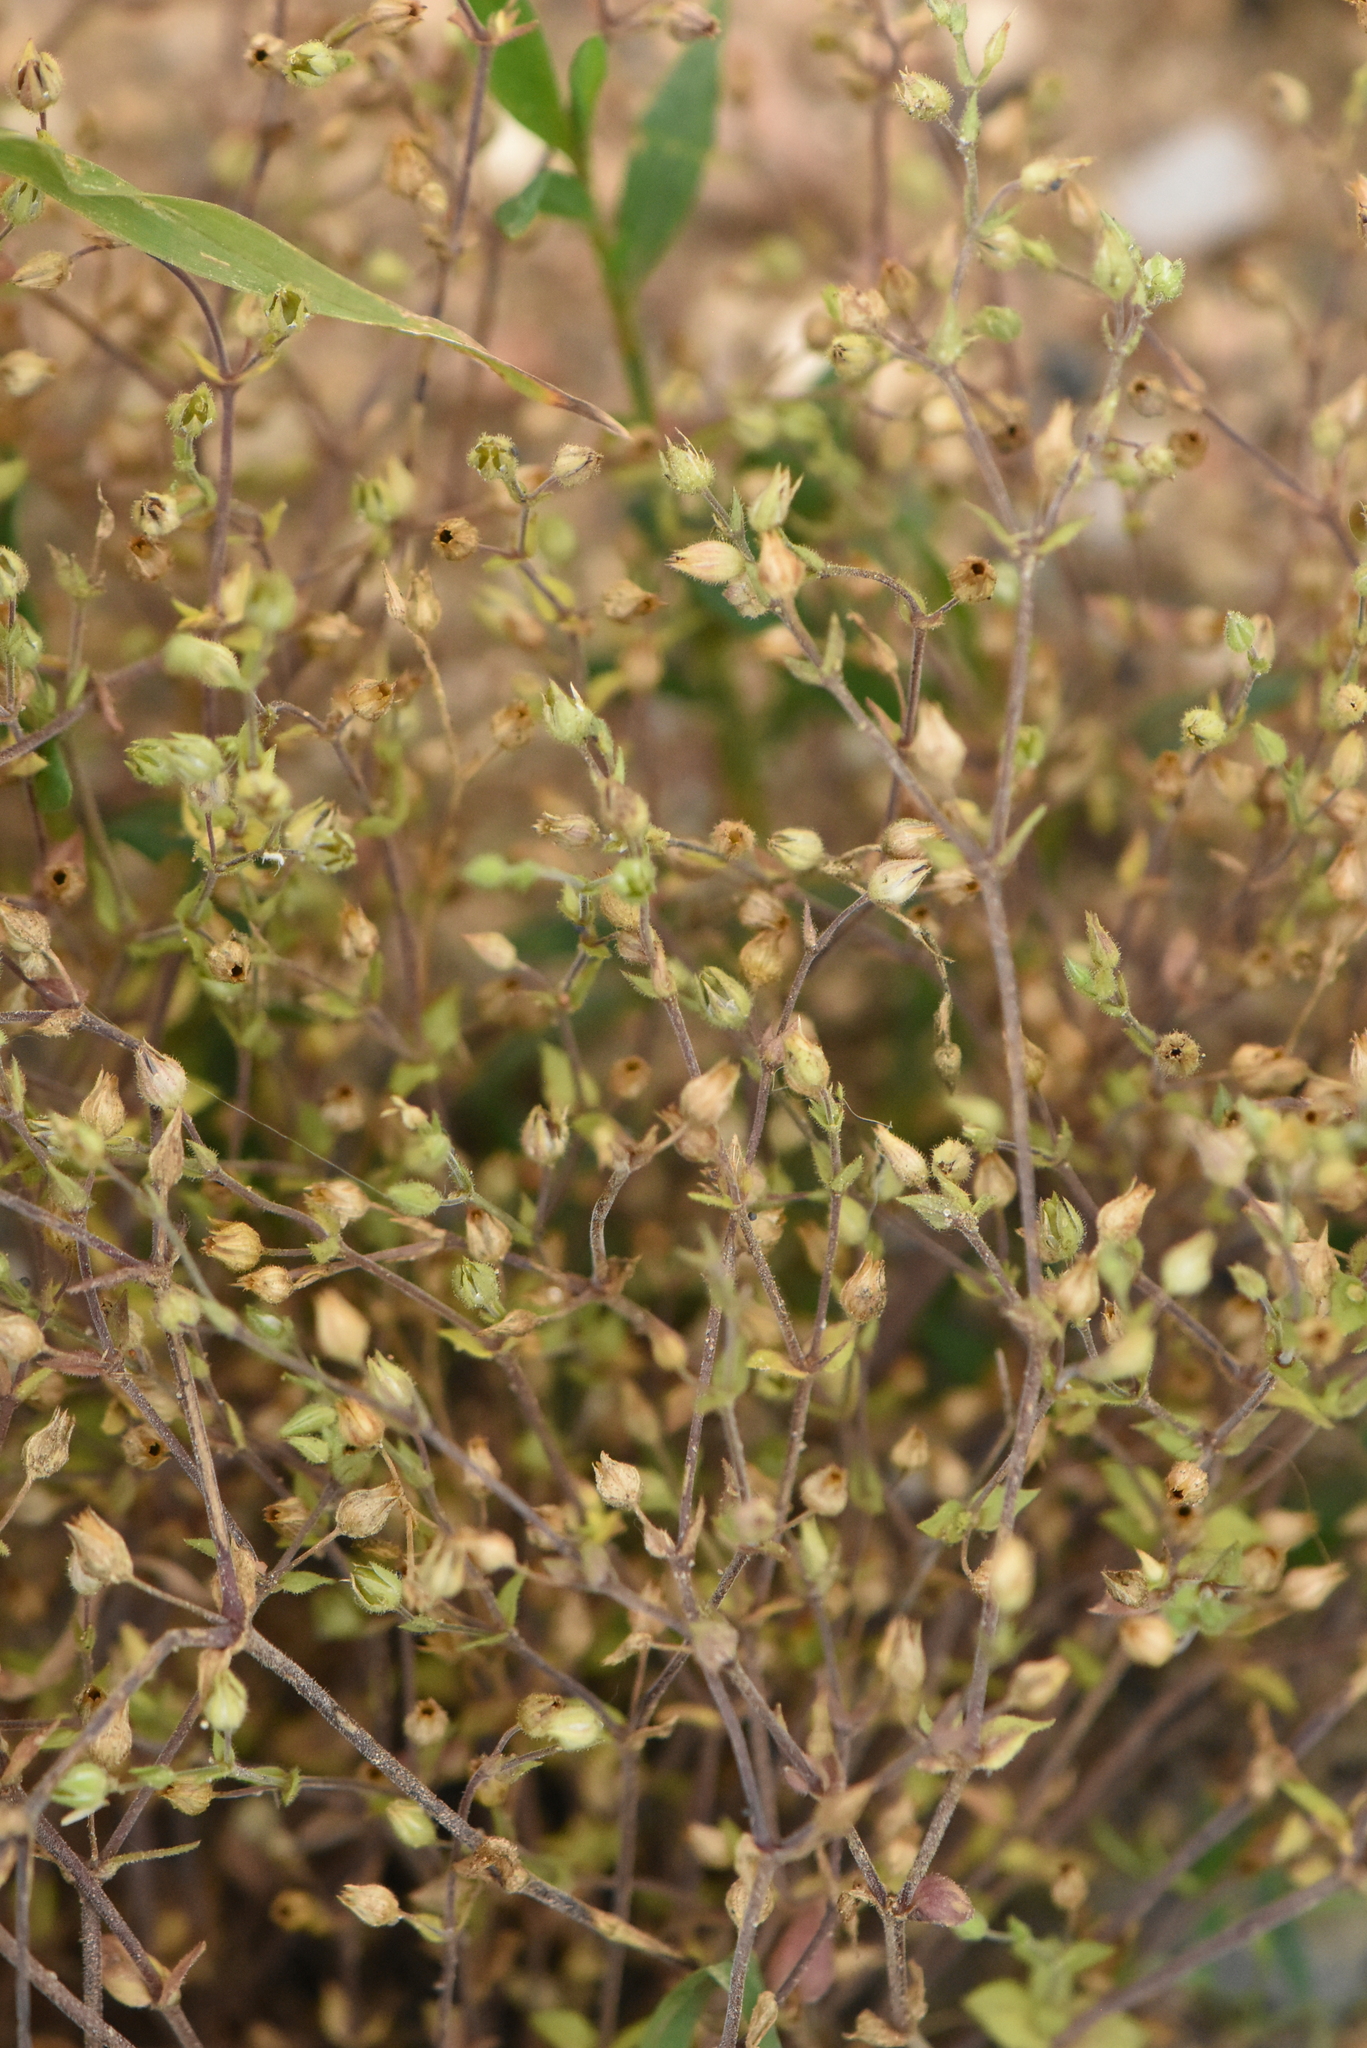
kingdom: Plantae
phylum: Tracheophyta
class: Magnoliopsida
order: Caryophyllales
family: Caryophyllaceae
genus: Arenaria
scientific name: Arenaria serpyllifolia
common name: Thyme-leaved sandwort
